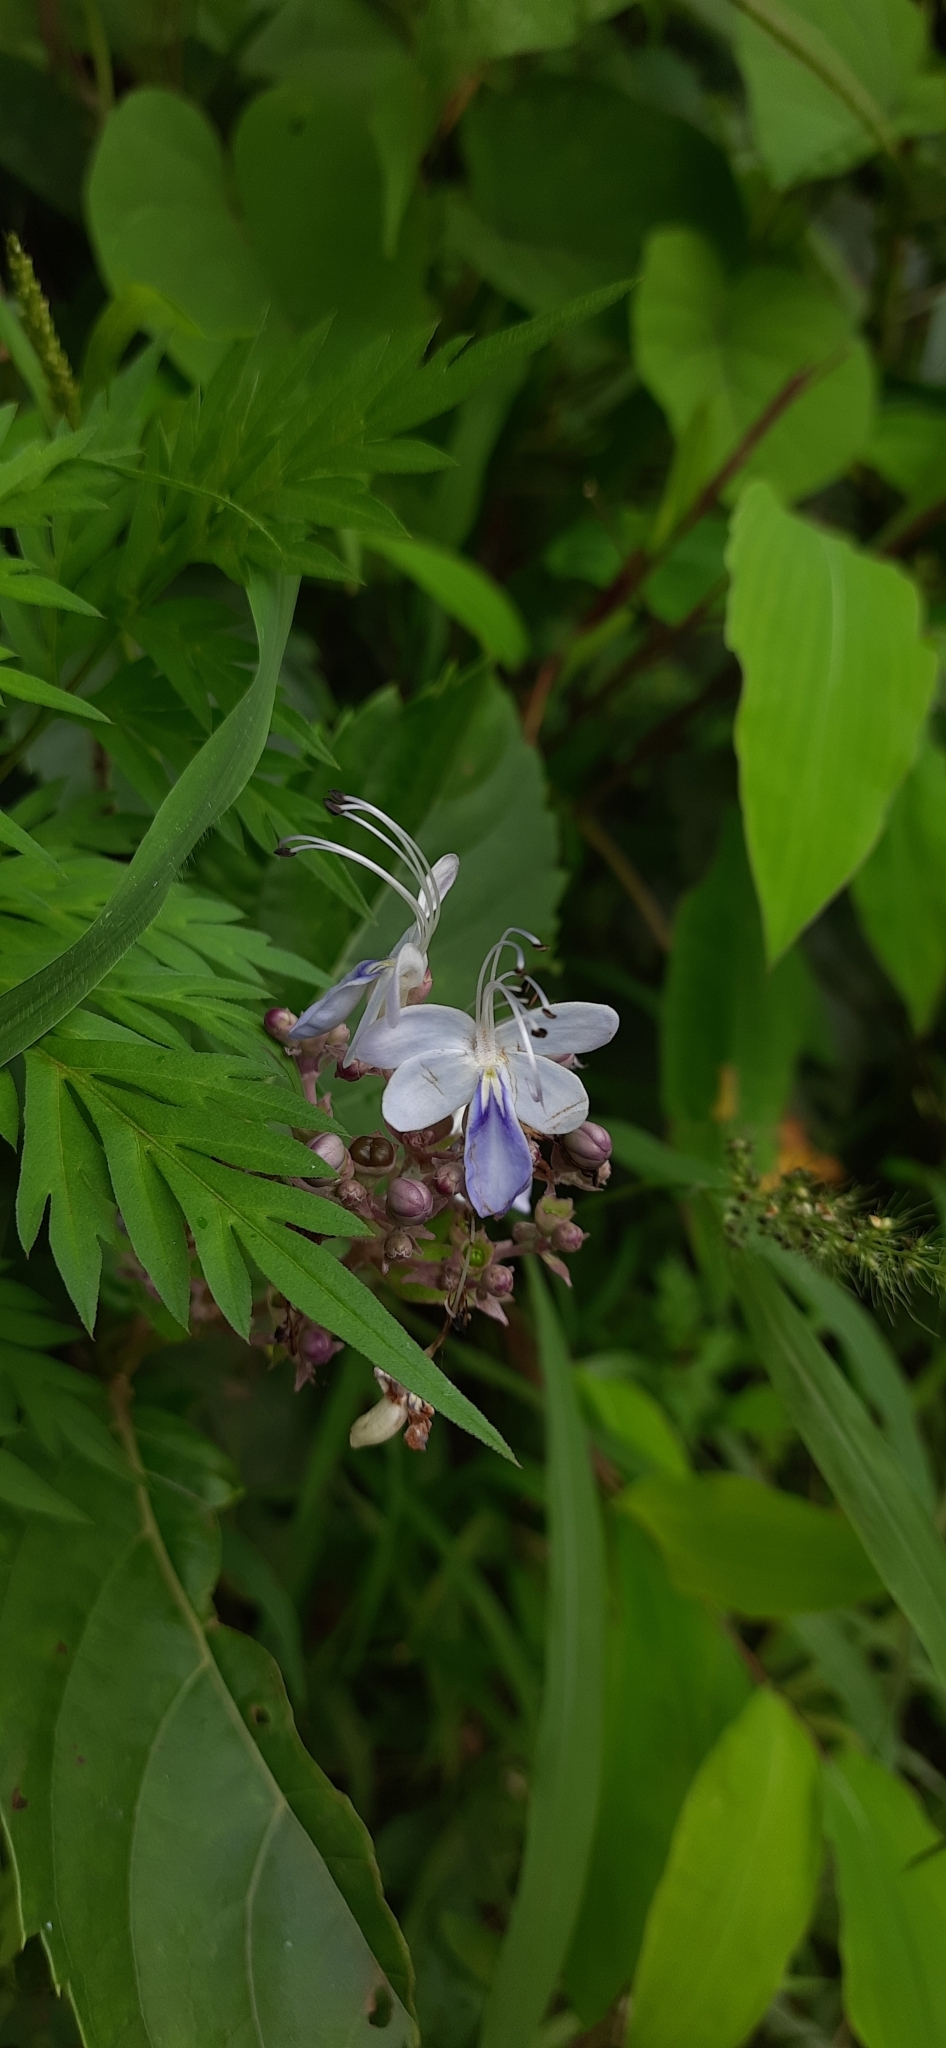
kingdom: Plantae
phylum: Tracheophyta
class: Magnoliopsida
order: Lamiales
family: Lamiaceae
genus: Rotheca
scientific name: Rotheca serrata
